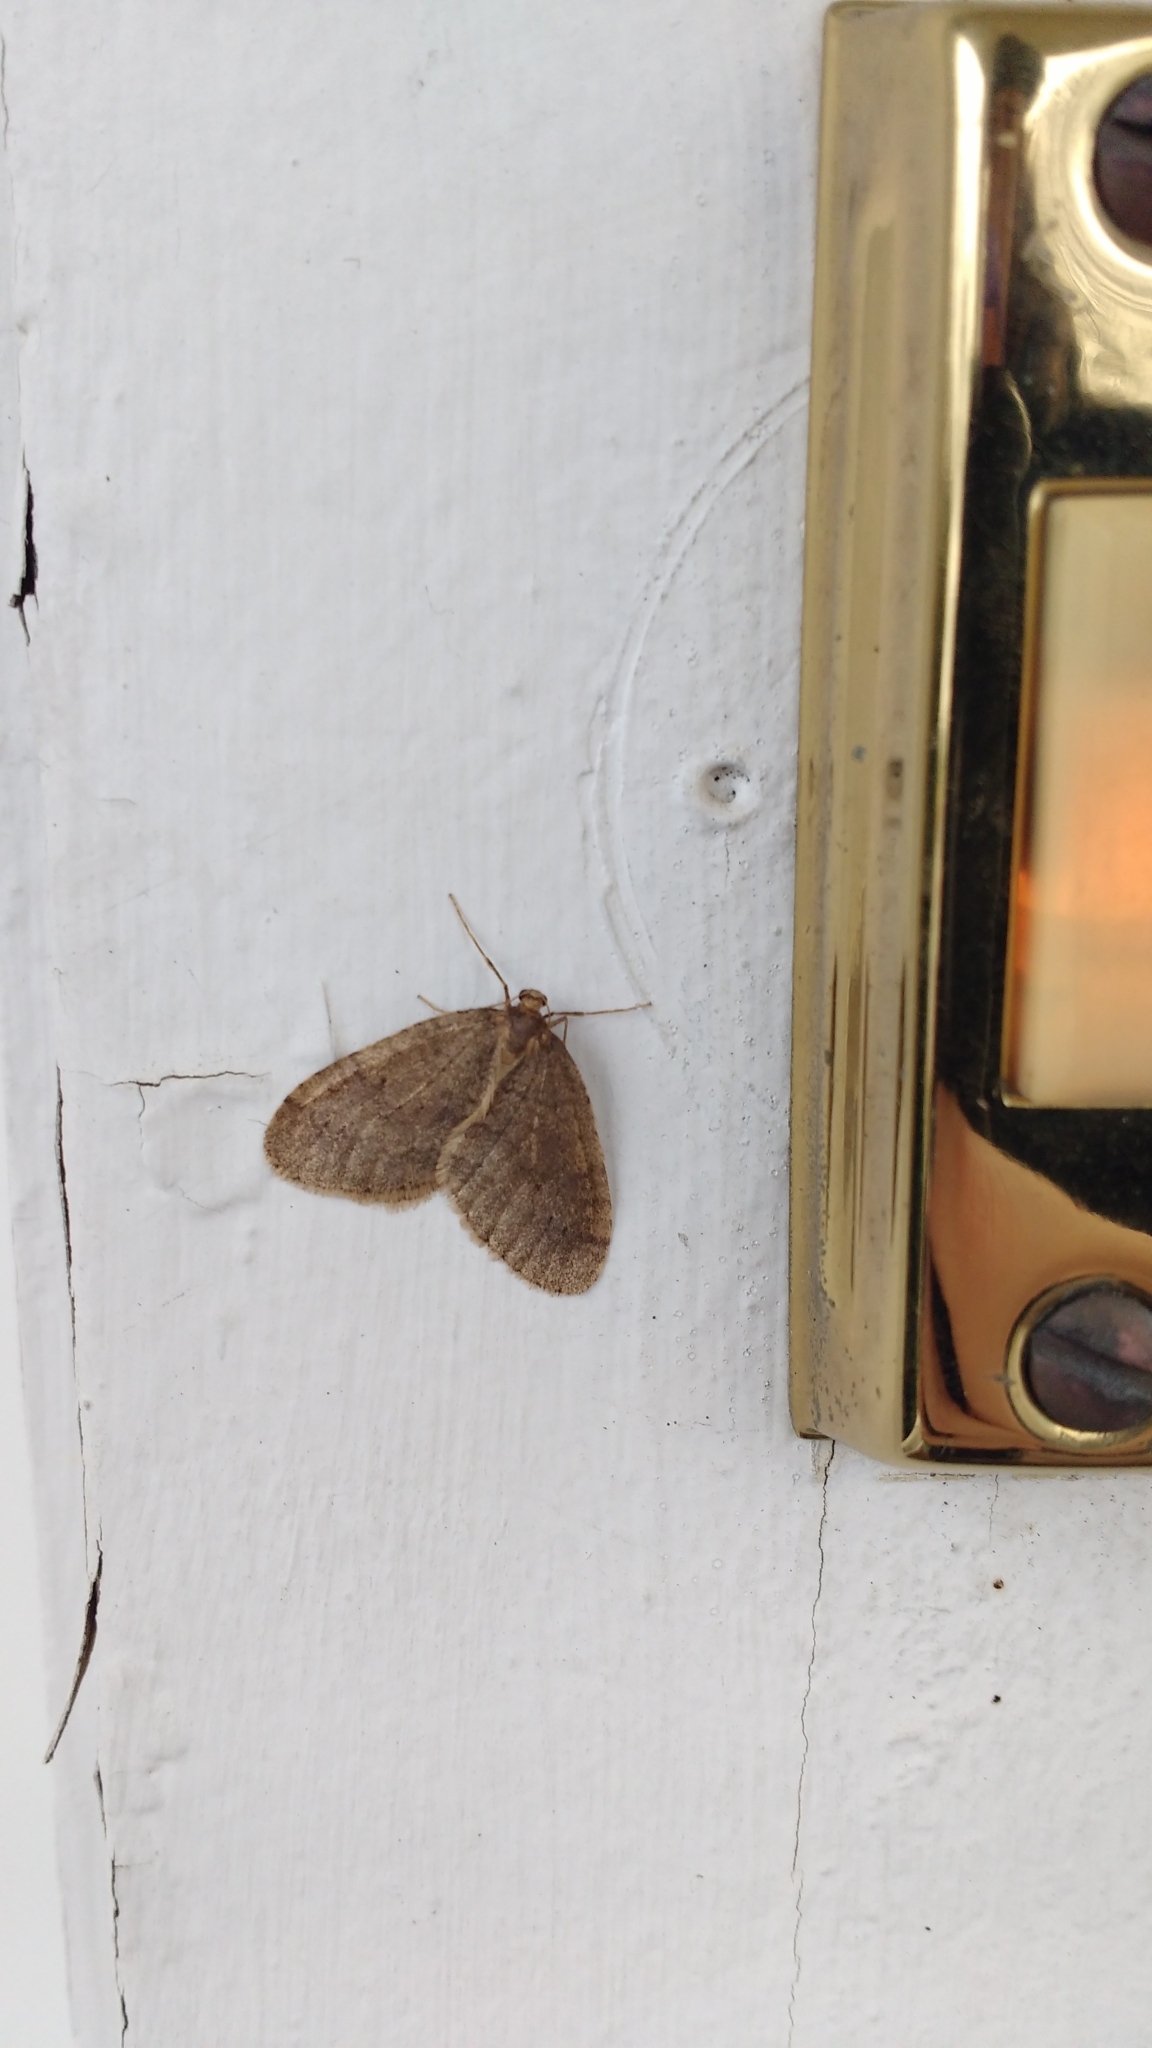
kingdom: Animalia
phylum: Arthropoda
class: Insecta
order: Lepidoptera
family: Geometridae
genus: Operophtera
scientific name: Operophtera brumata
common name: Winter moth
